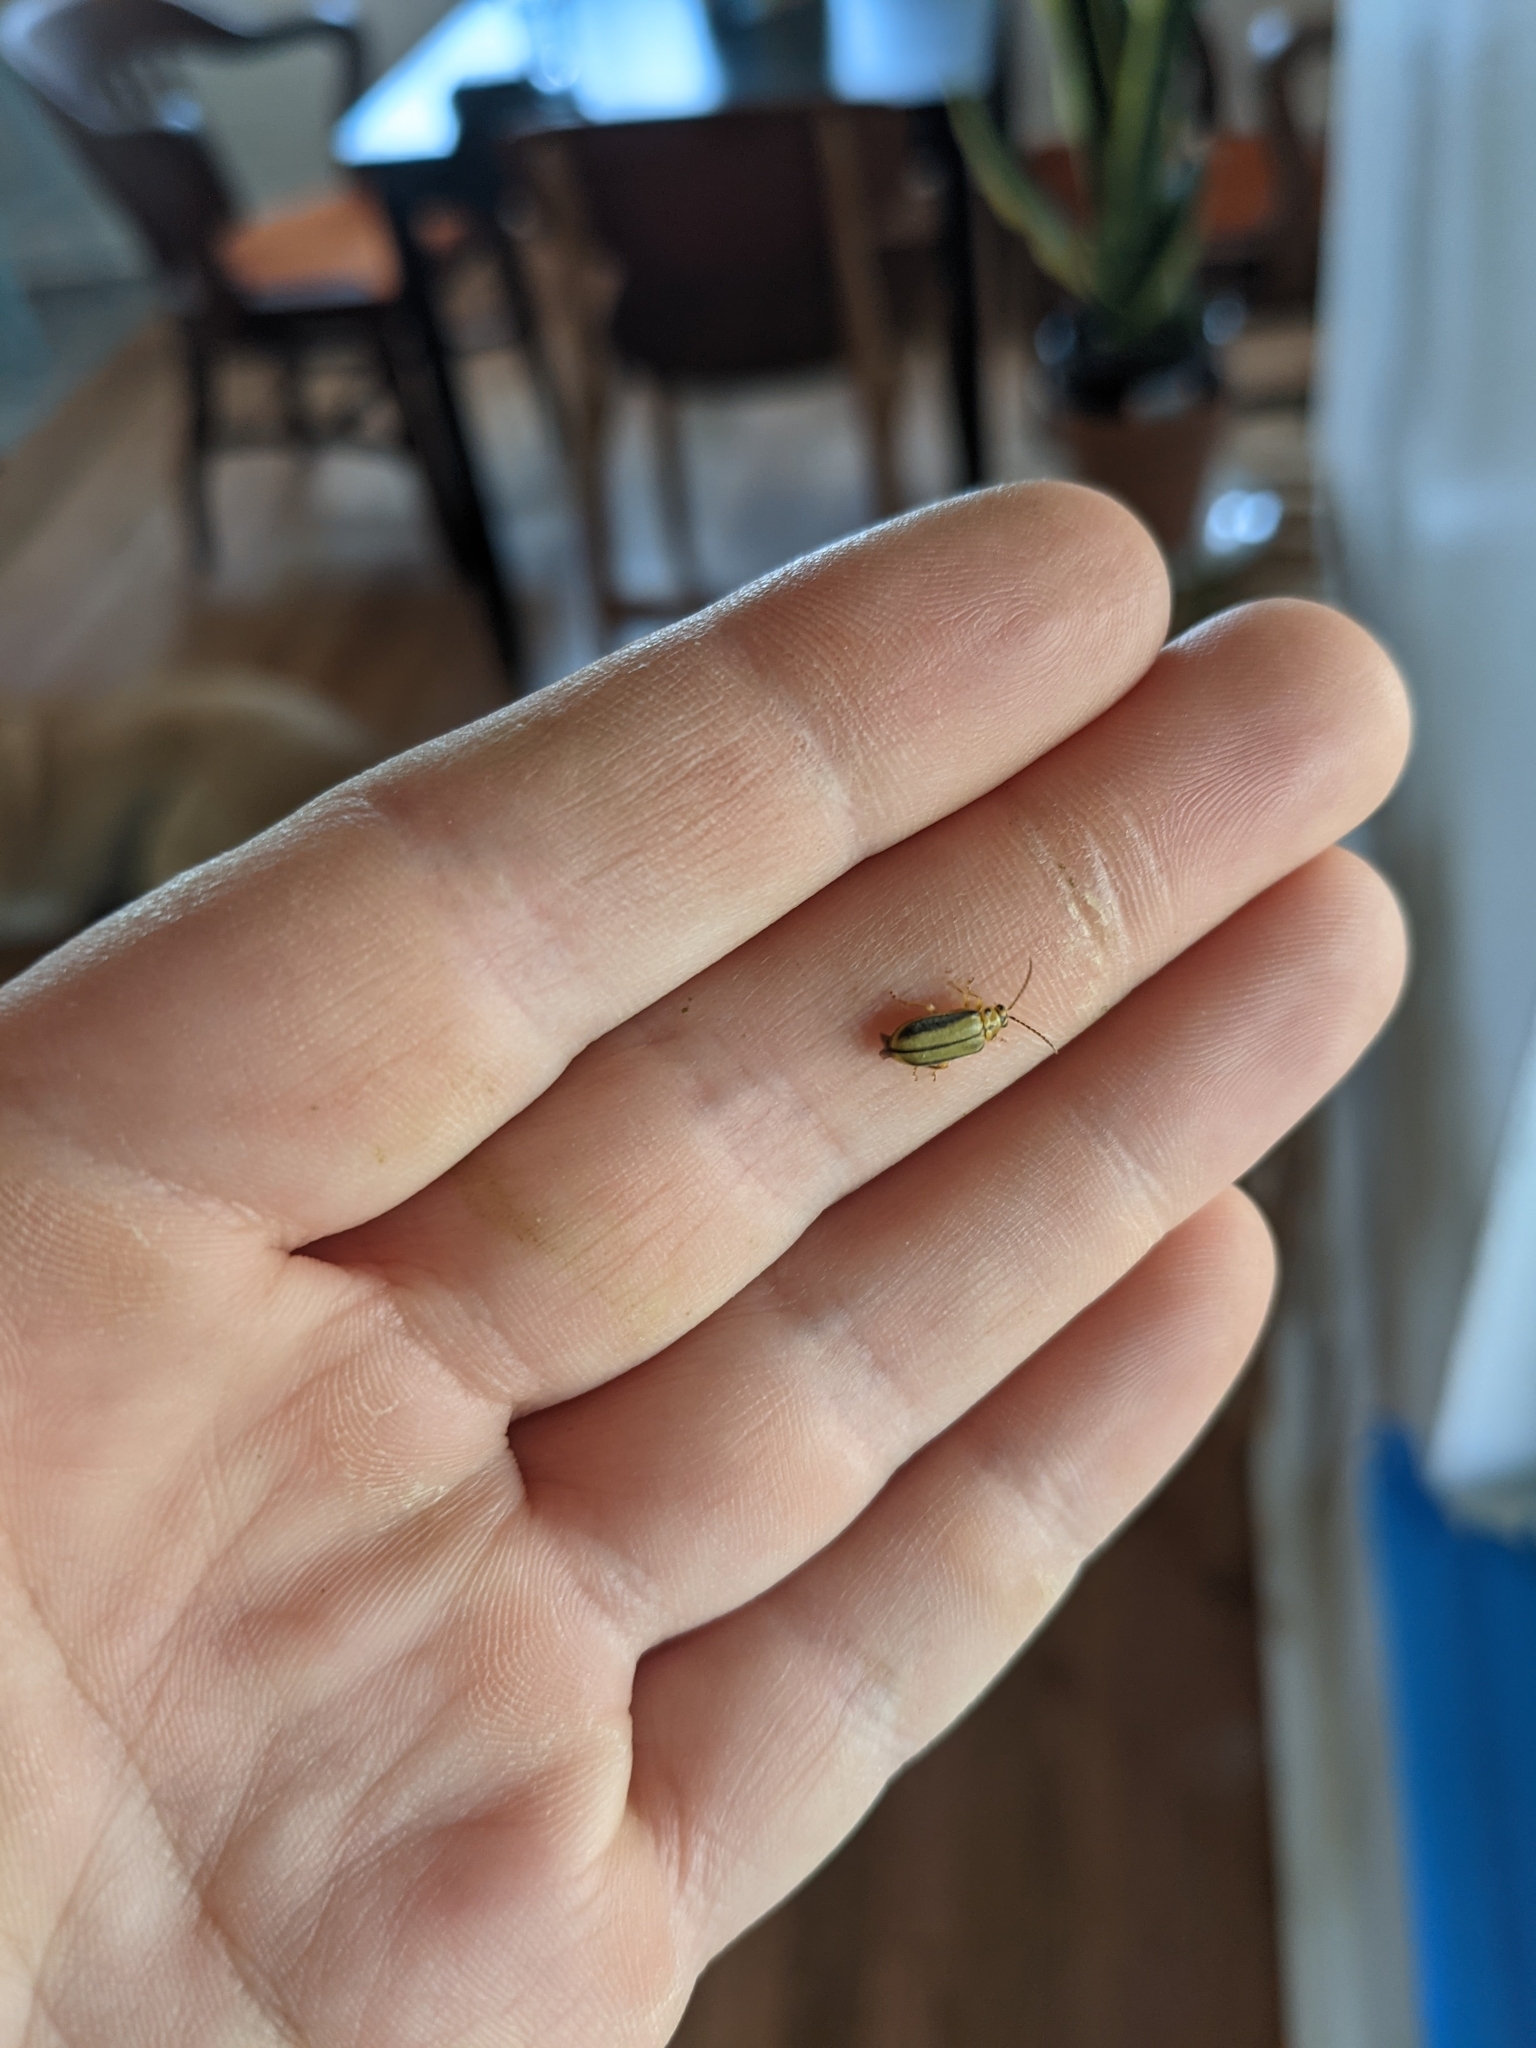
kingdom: Animalia
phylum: Arthropoda
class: Insecta
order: Coleoptera
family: Chrysomelidae
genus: Xanthogaleruca
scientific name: Xanthogaleruca luteola
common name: Elm leaf beetle
